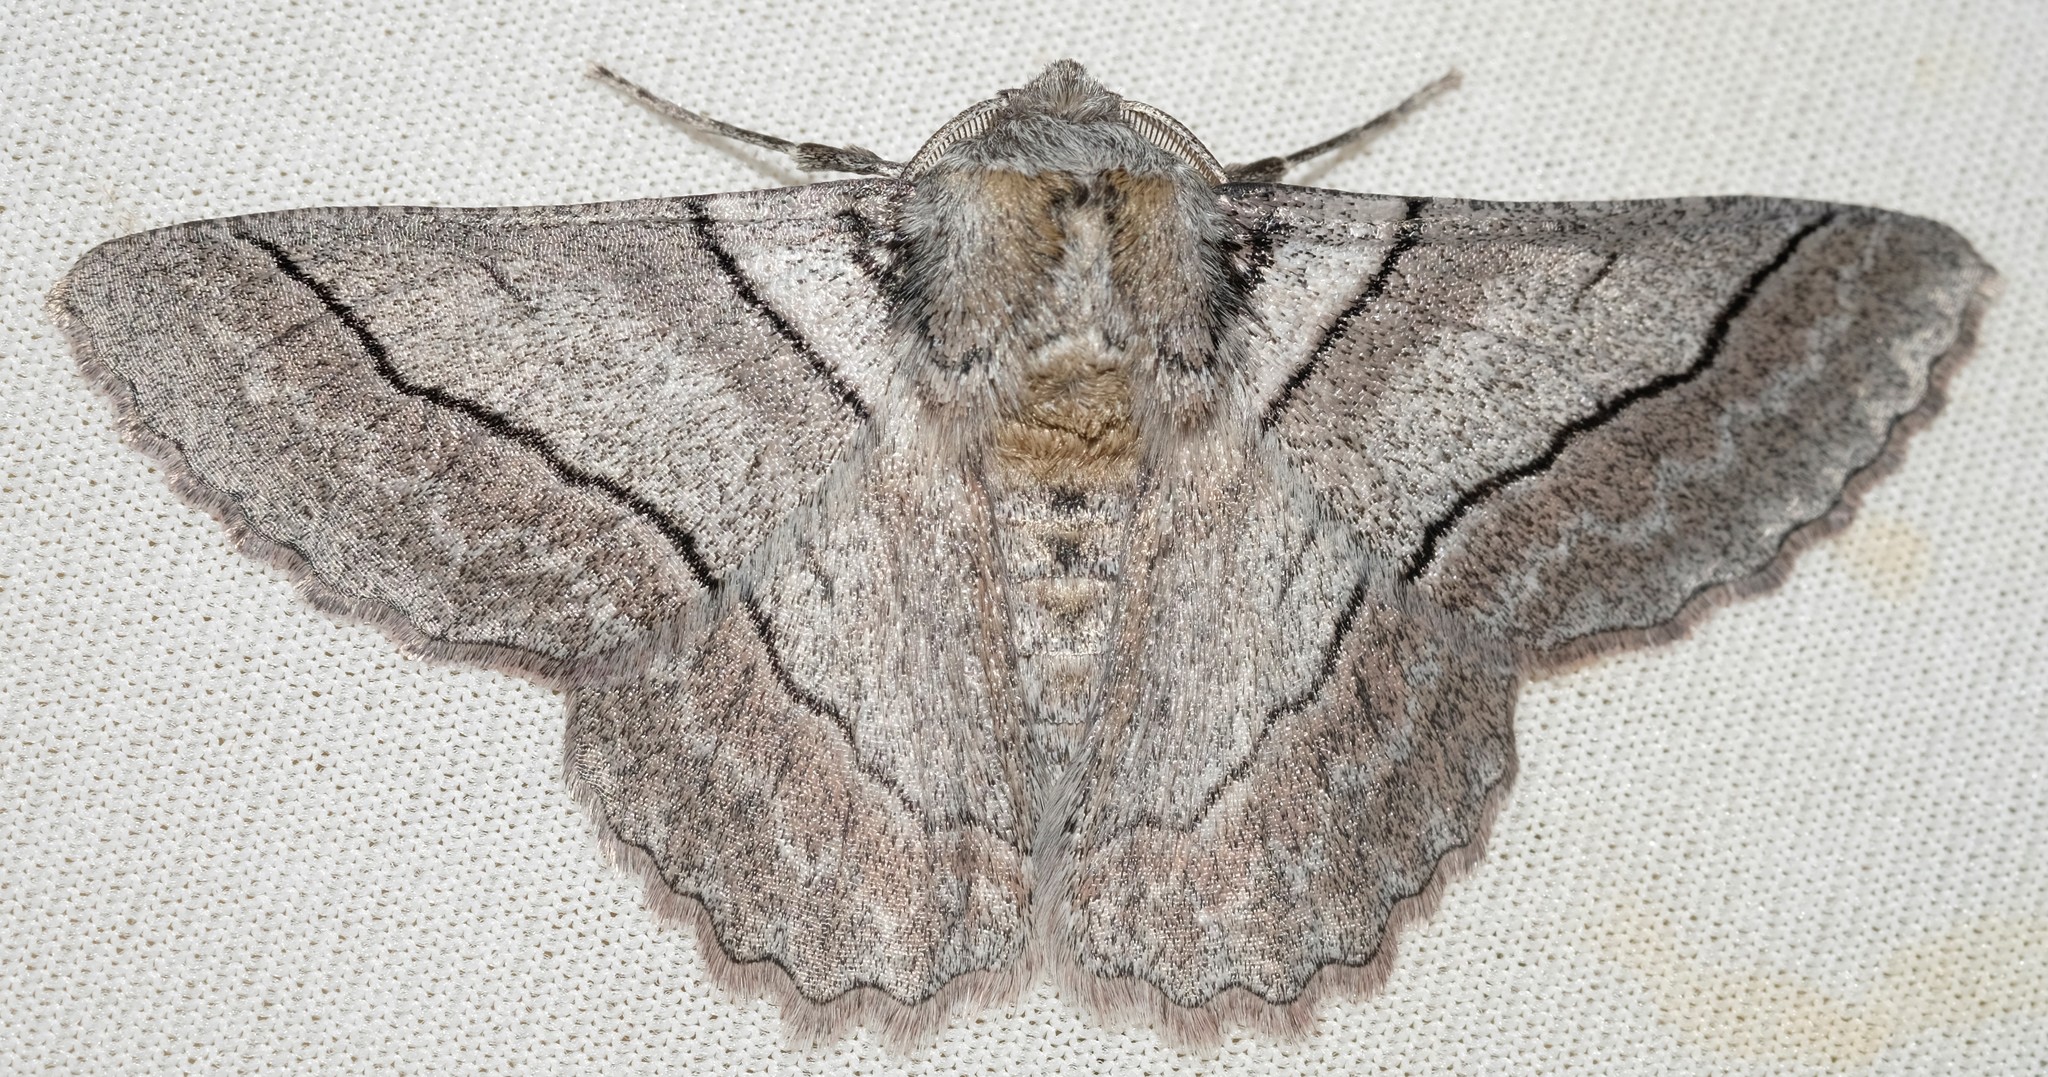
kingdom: Animalia
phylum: Arthropoda
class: Insecta
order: Lepidoptera
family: Geometridae
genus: Hypobapta
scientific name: Hypobapta tachyhalotaria
